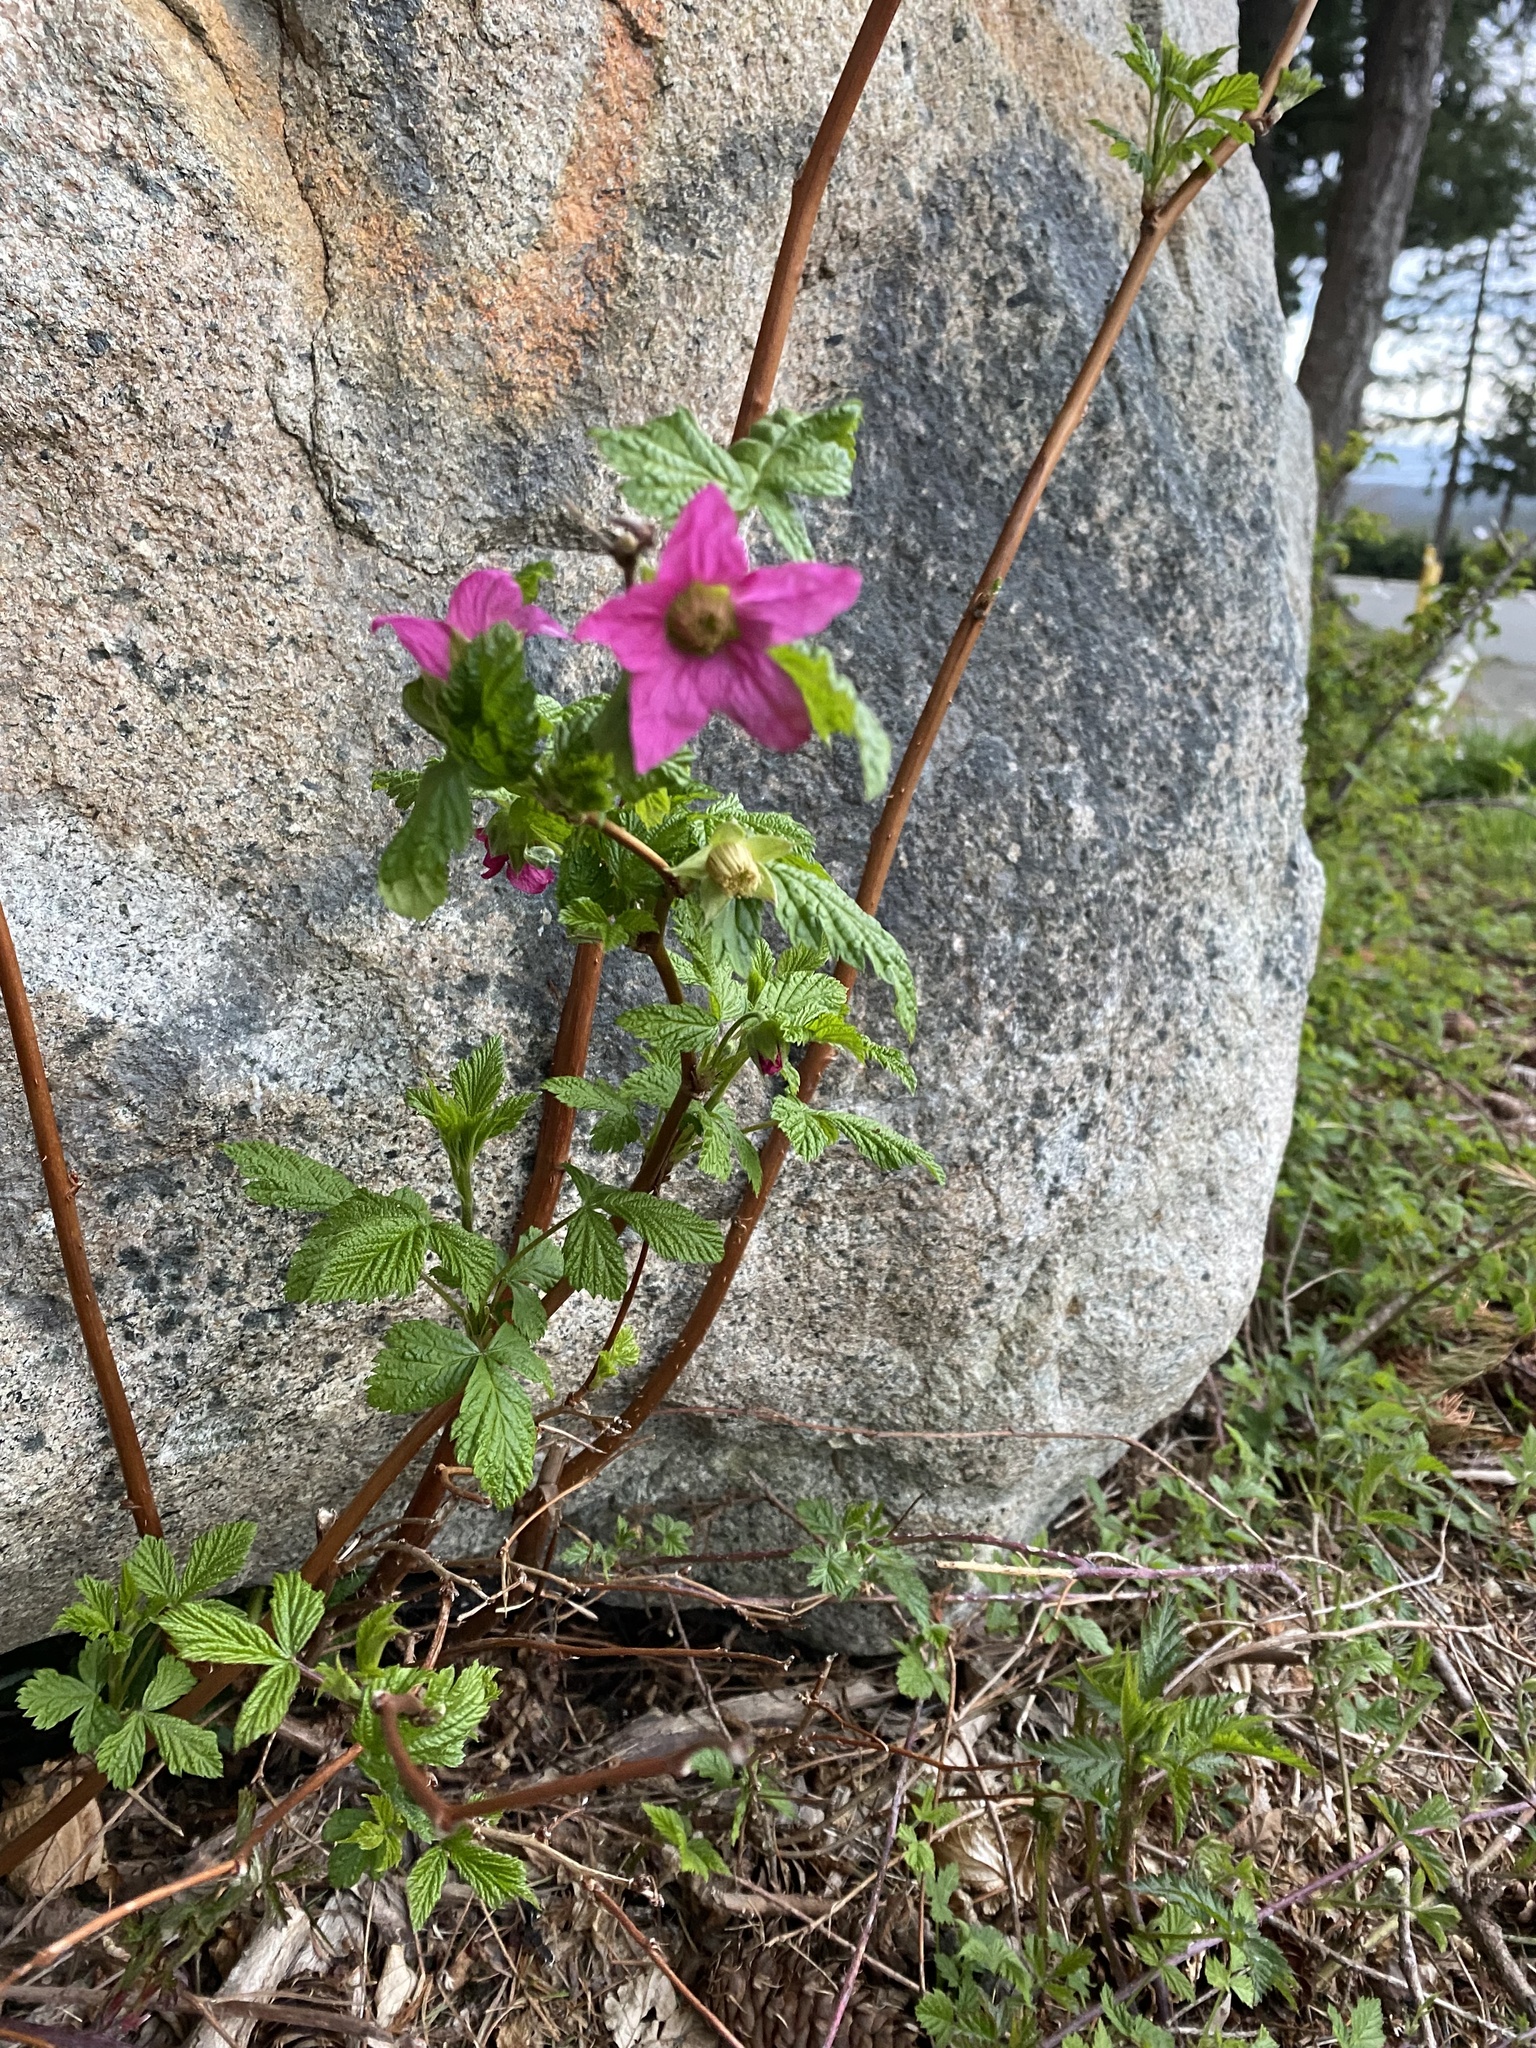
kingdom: Plantae
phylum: Tracheophyta
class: Magnoliopsida
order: Rosales
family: Rosaceae
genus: Rubus
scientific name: Rubus spectabilis
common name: Salmonberry
